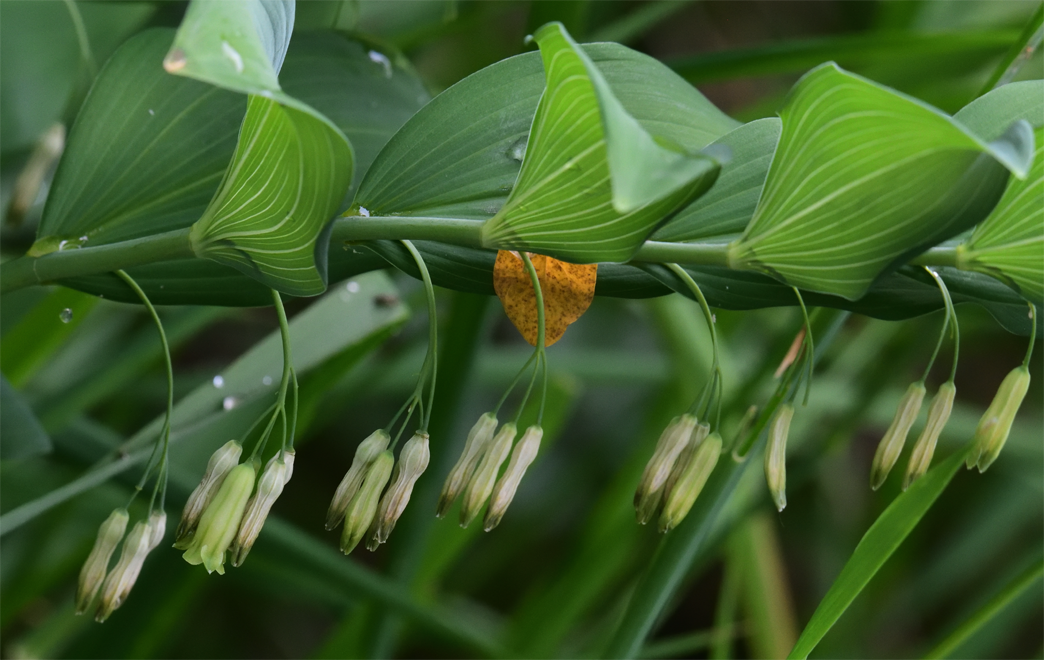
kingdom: Plantae
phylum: Tracheophyta
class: Liliopsida
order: Asparagales
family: Asparagaceae
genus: Polygonatum
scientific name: Polygonatum biflorum
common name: American solomon's-seal
